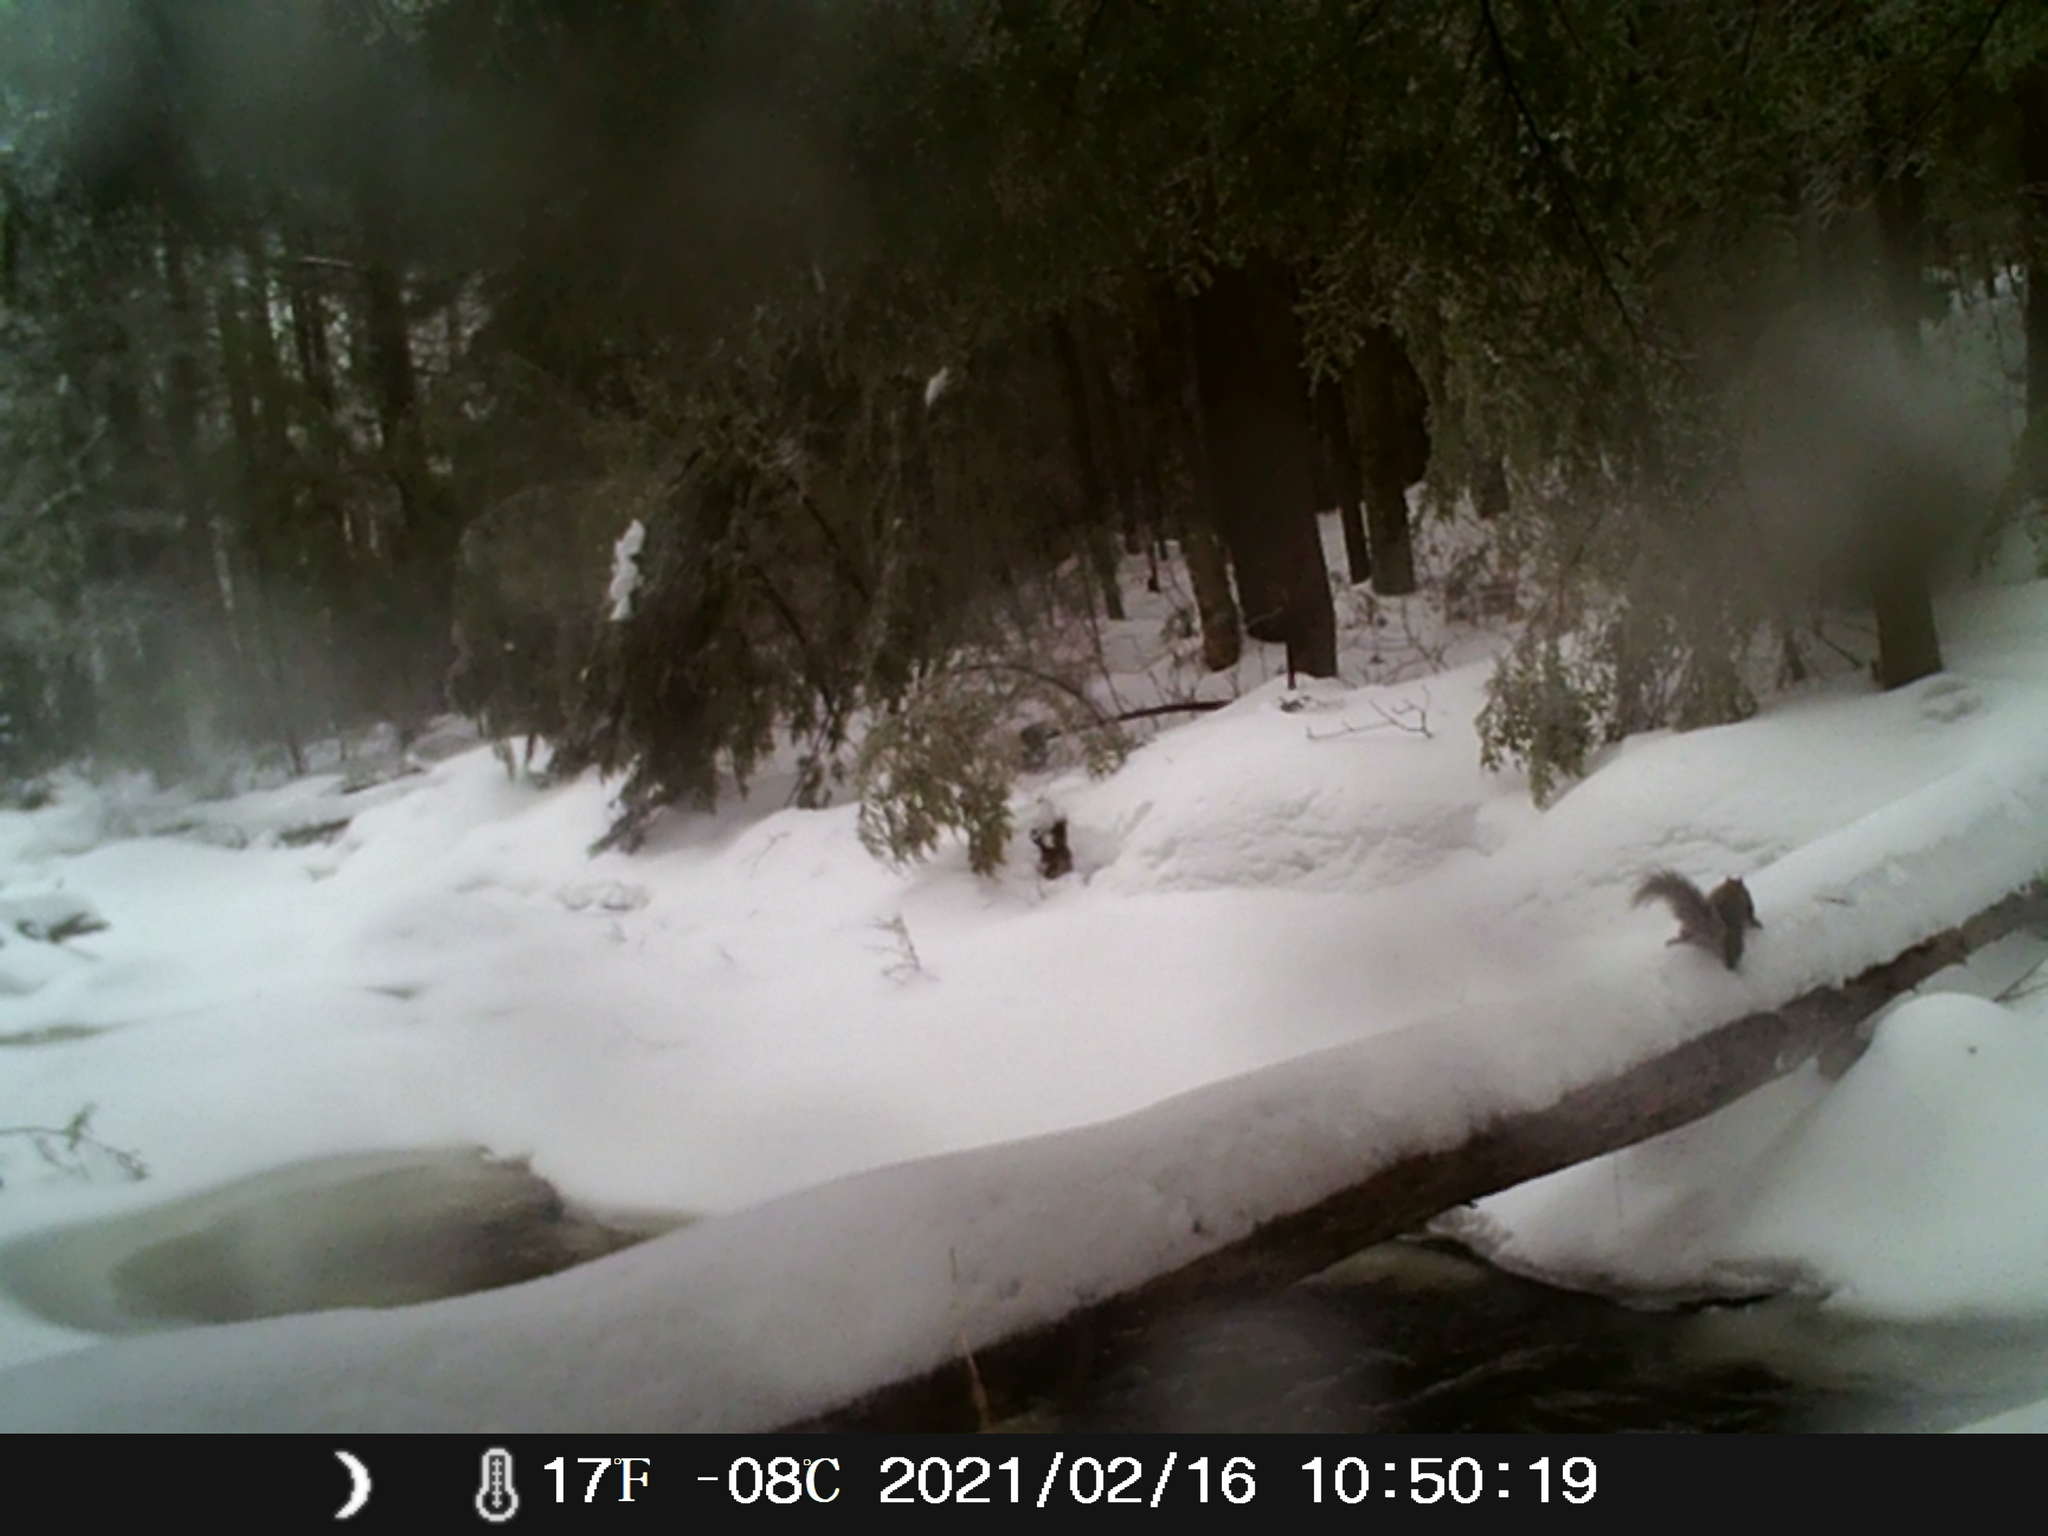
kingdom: Animalia
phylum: Chordata
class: Mammalia
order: Rodentia
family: Sciuridae
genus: Sciurus
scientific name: Sciurus carolinensis
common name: Eastern gray squirrel
